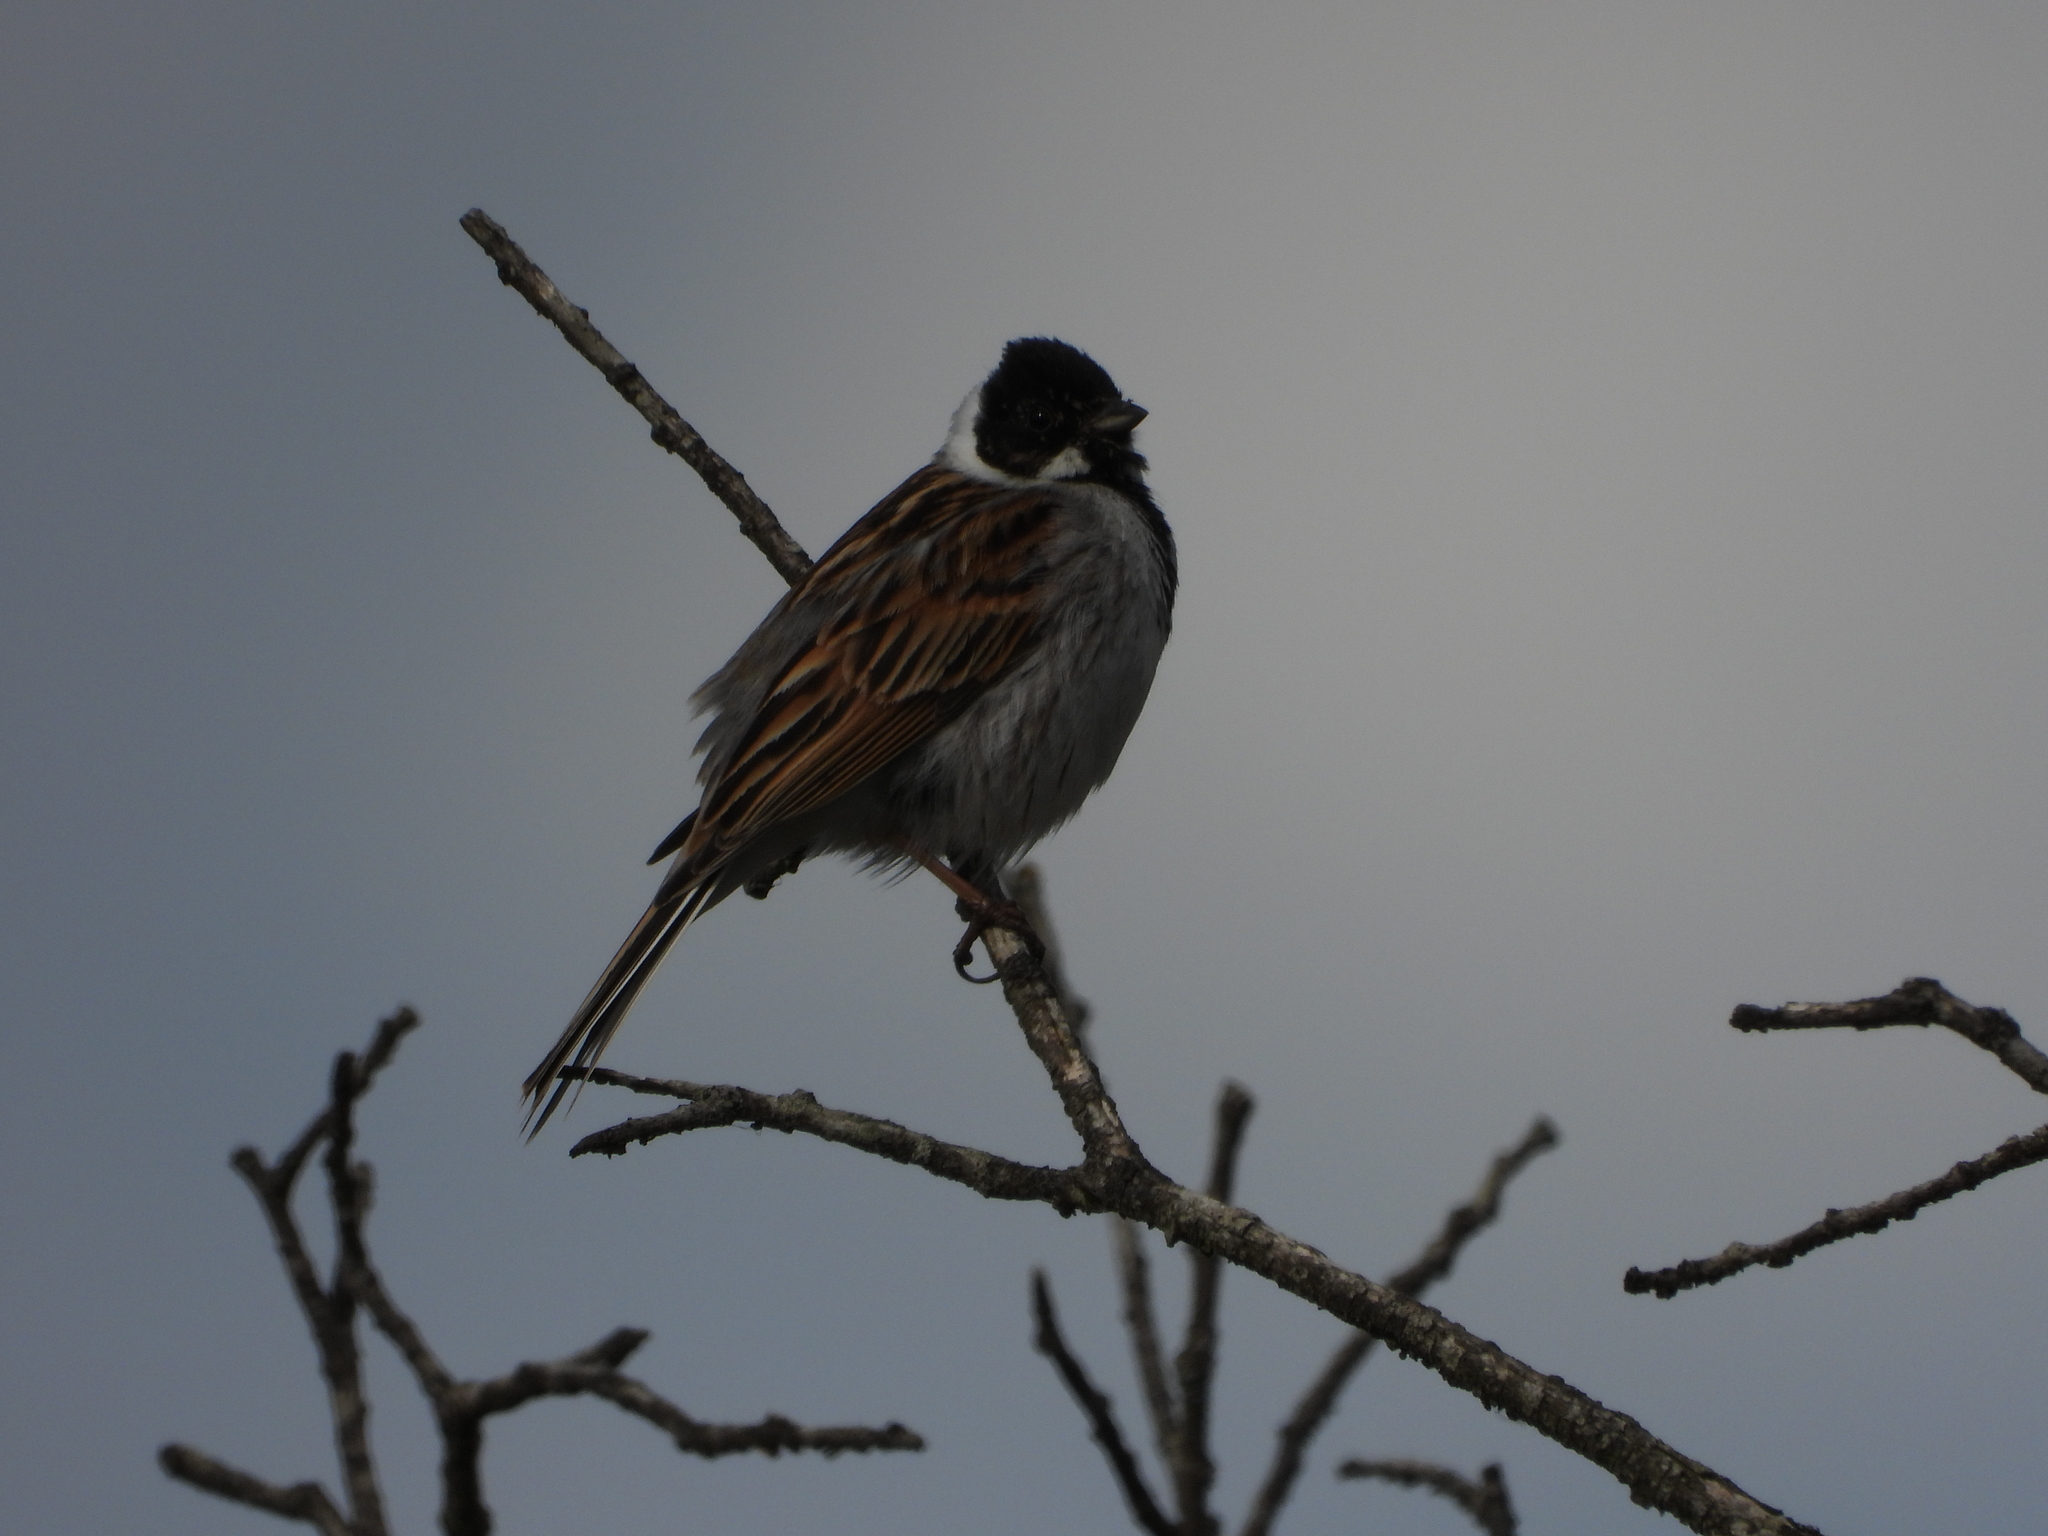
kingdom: Animalia
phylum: Chordata
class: Aves
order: Passeriformes
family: Emberizidae
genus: Emberiza
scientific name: Emberiza schoeniclus
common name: Reed bunting
